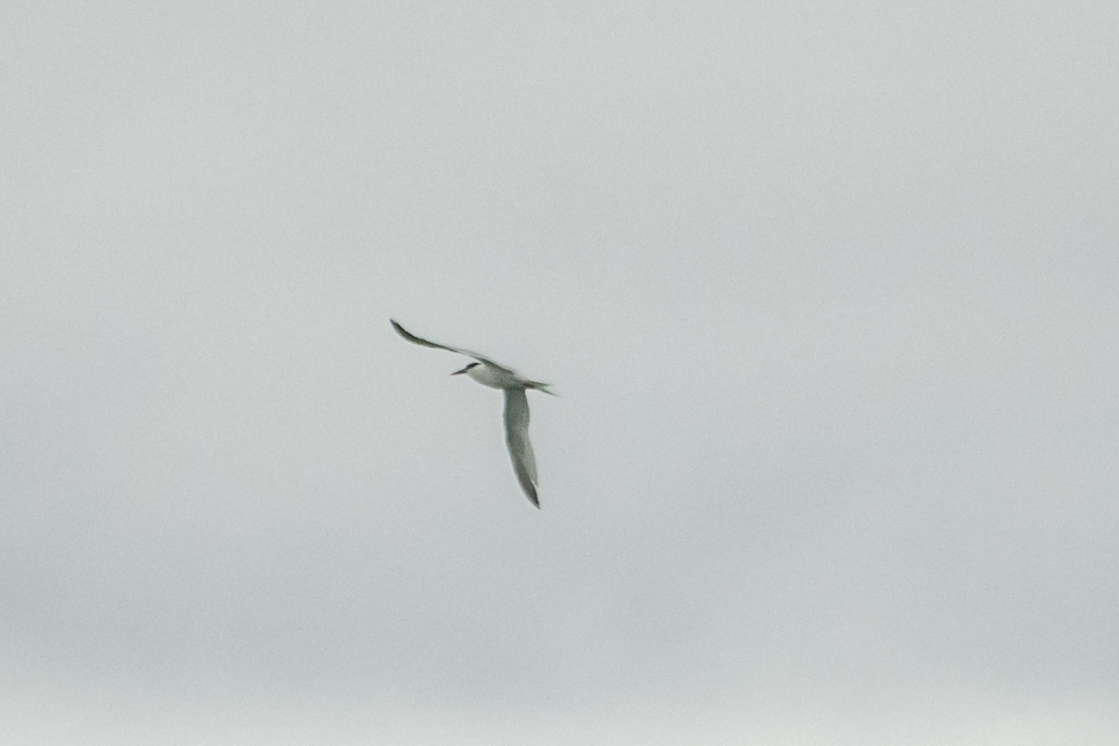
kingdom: Animalia
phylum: Chordata
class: Aves
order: Charadriiformes
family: Laridae
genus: Thalasseus
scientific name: Thalasseus sandvicensis
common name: Sandwich tern
